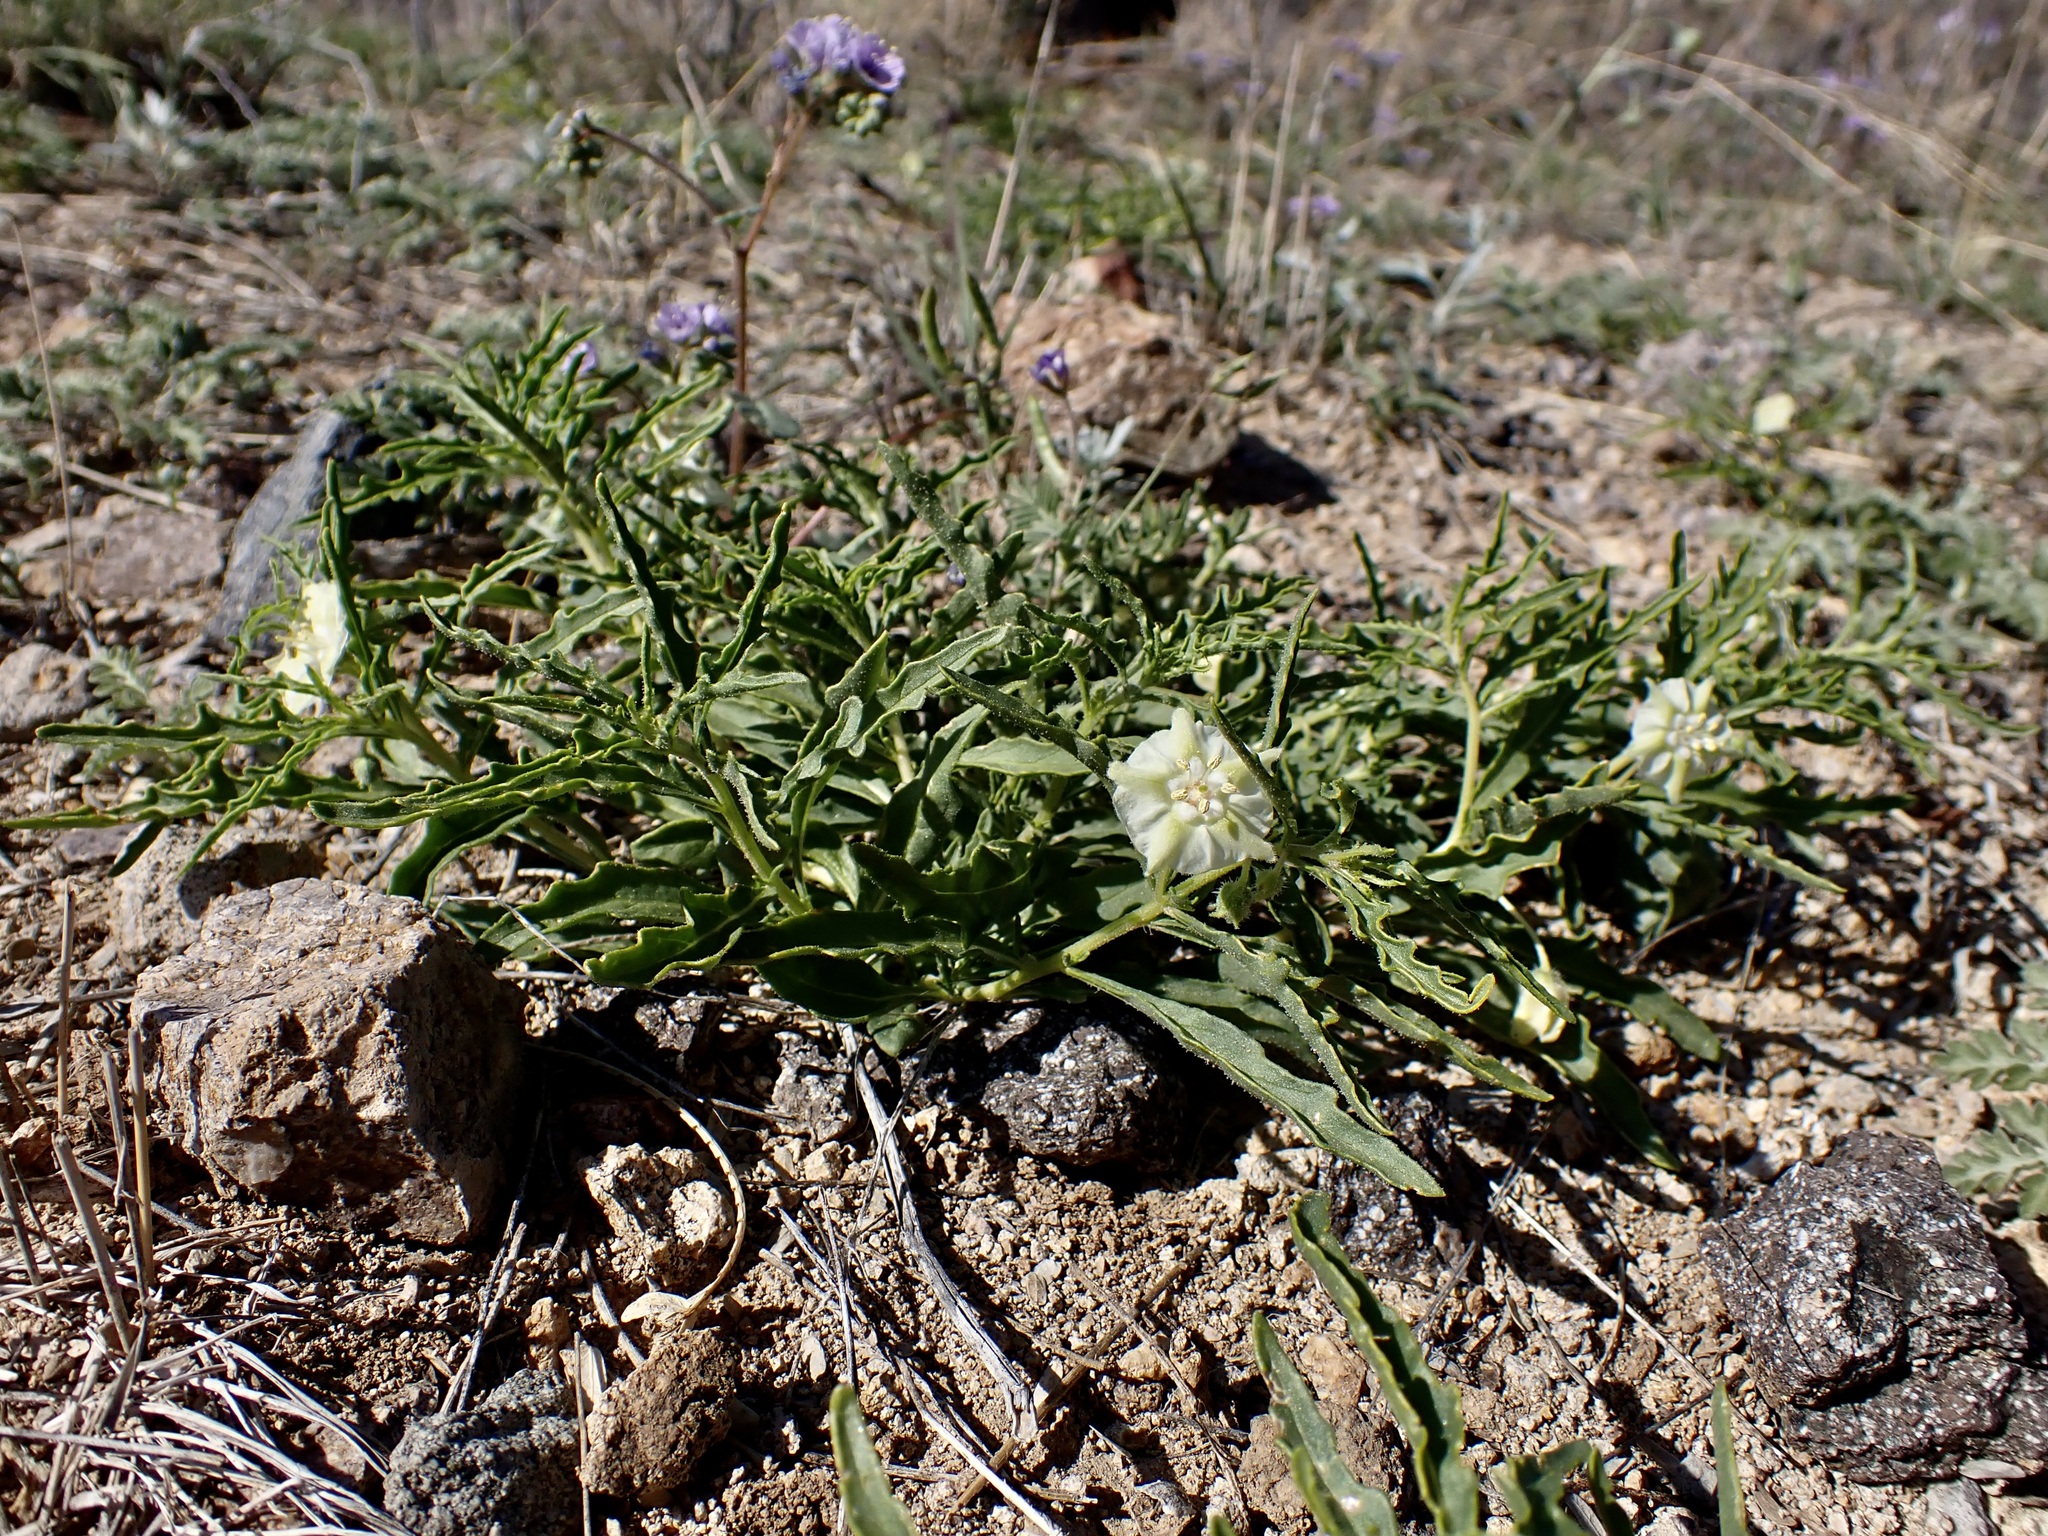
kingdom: Plantae
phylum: Tracheophyta
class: Magnoliopsida
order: Solanales
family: Solanaceae
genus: Chamaesaracha
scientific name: Chamaesaracha coronopus
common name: Smooth chamaesaracha
